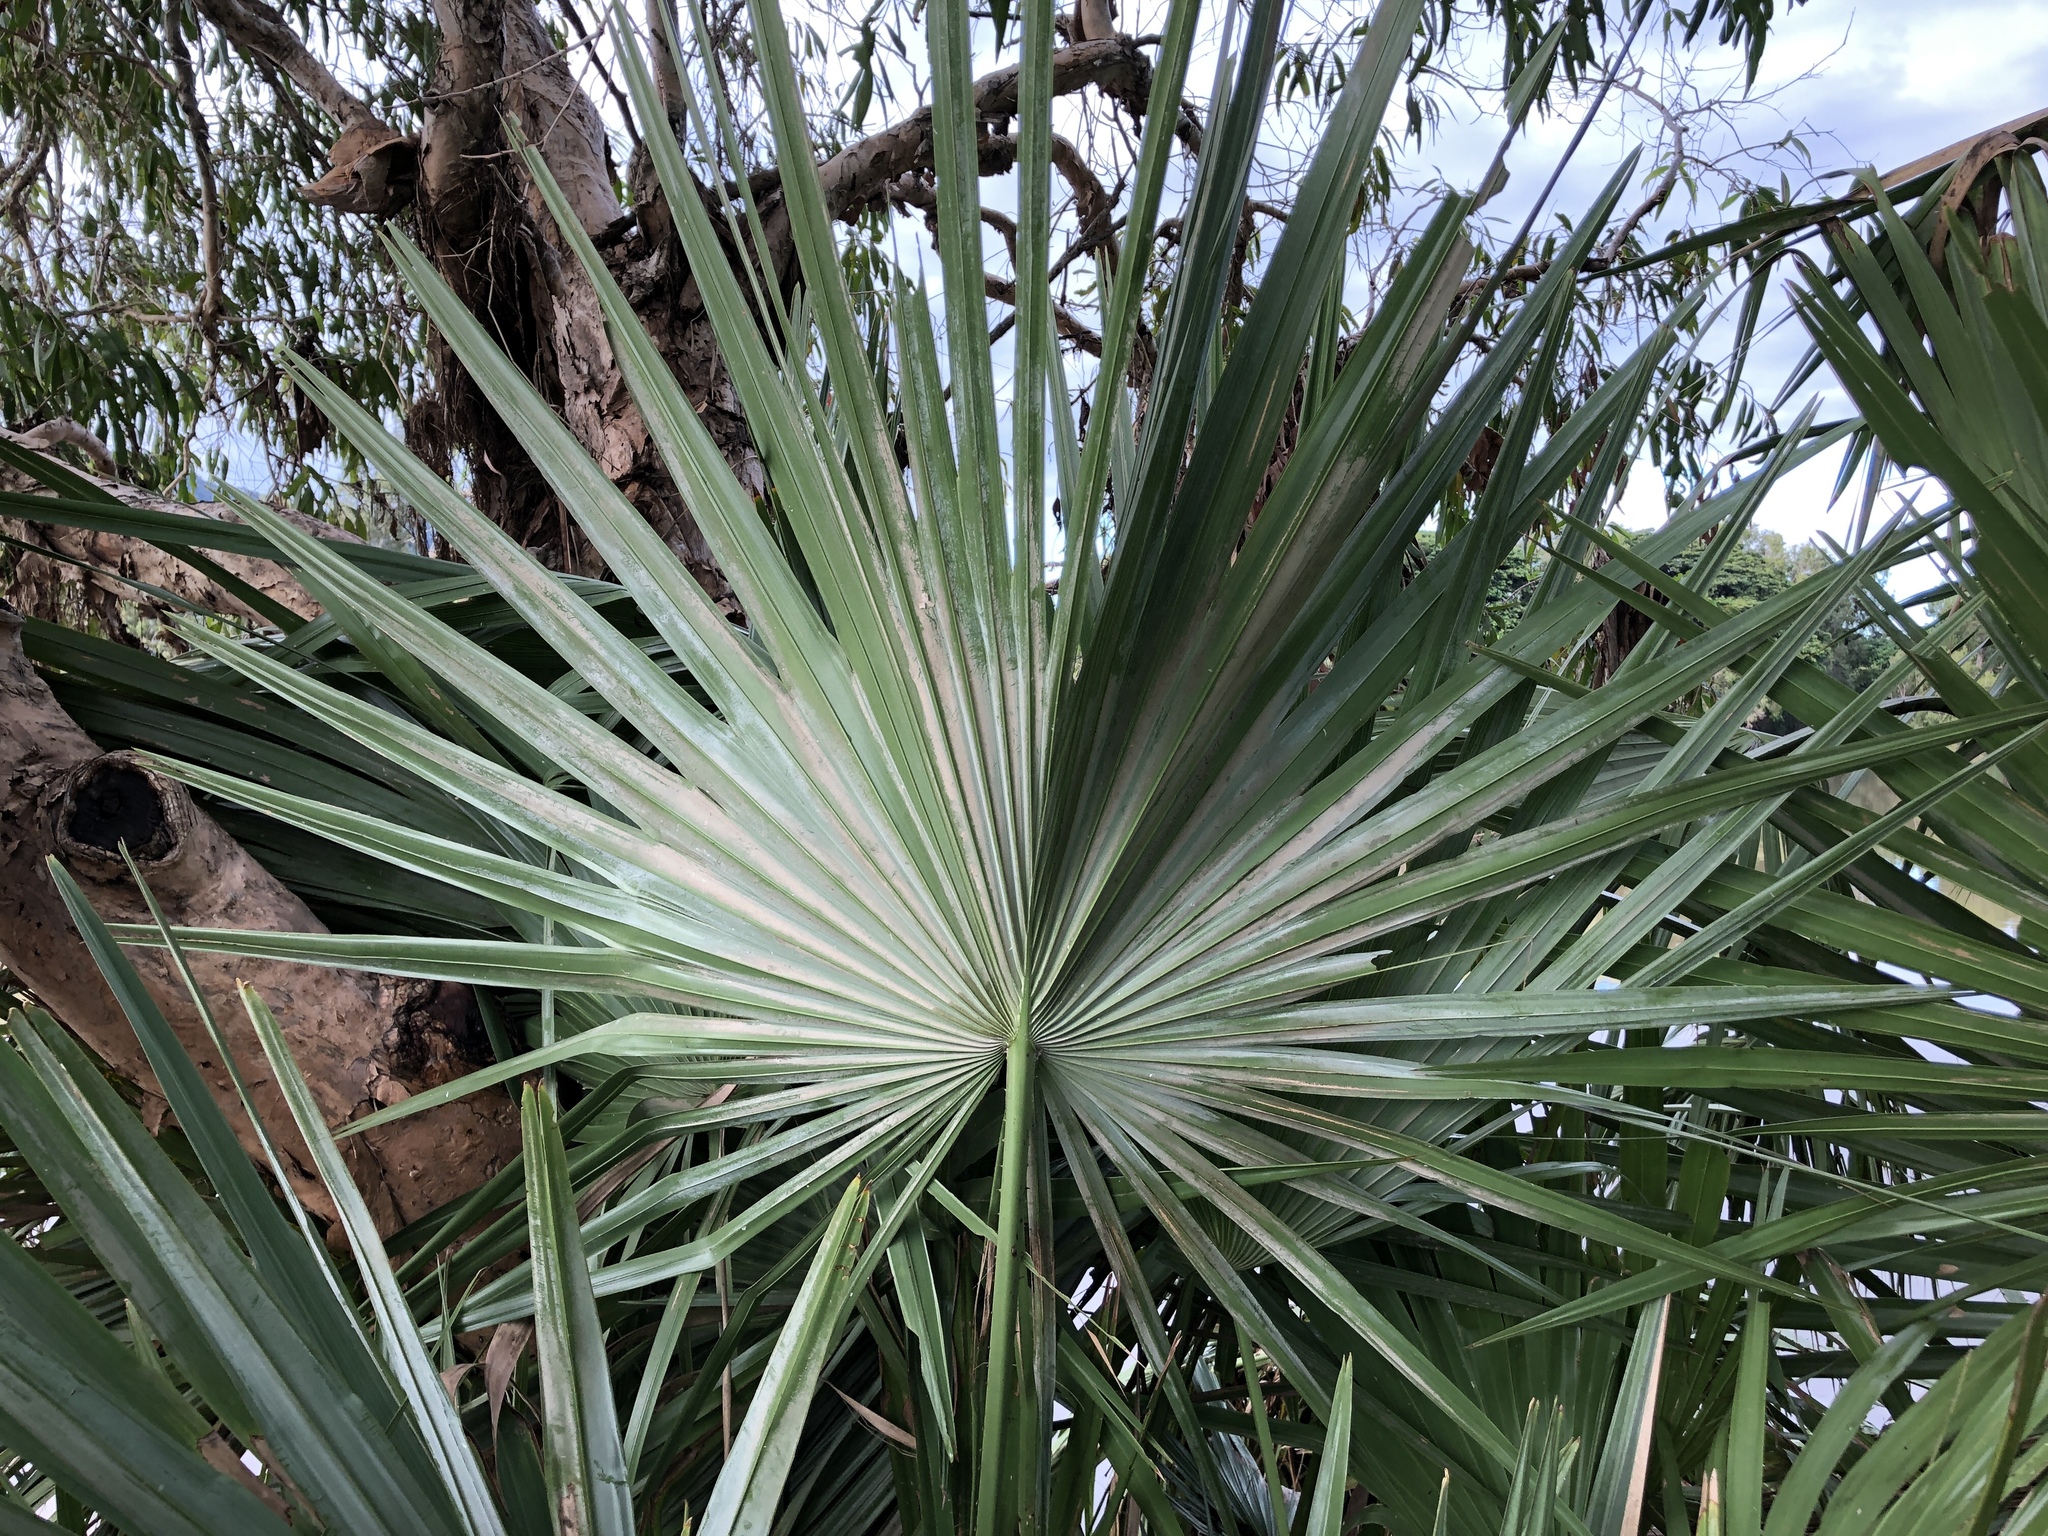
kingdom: Plantae
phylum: Tracheophyta
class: Liliopsida
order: Arecales
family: Arecaceae
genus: Livistona
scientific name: Livistona australis
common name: Cabbage fan palm
